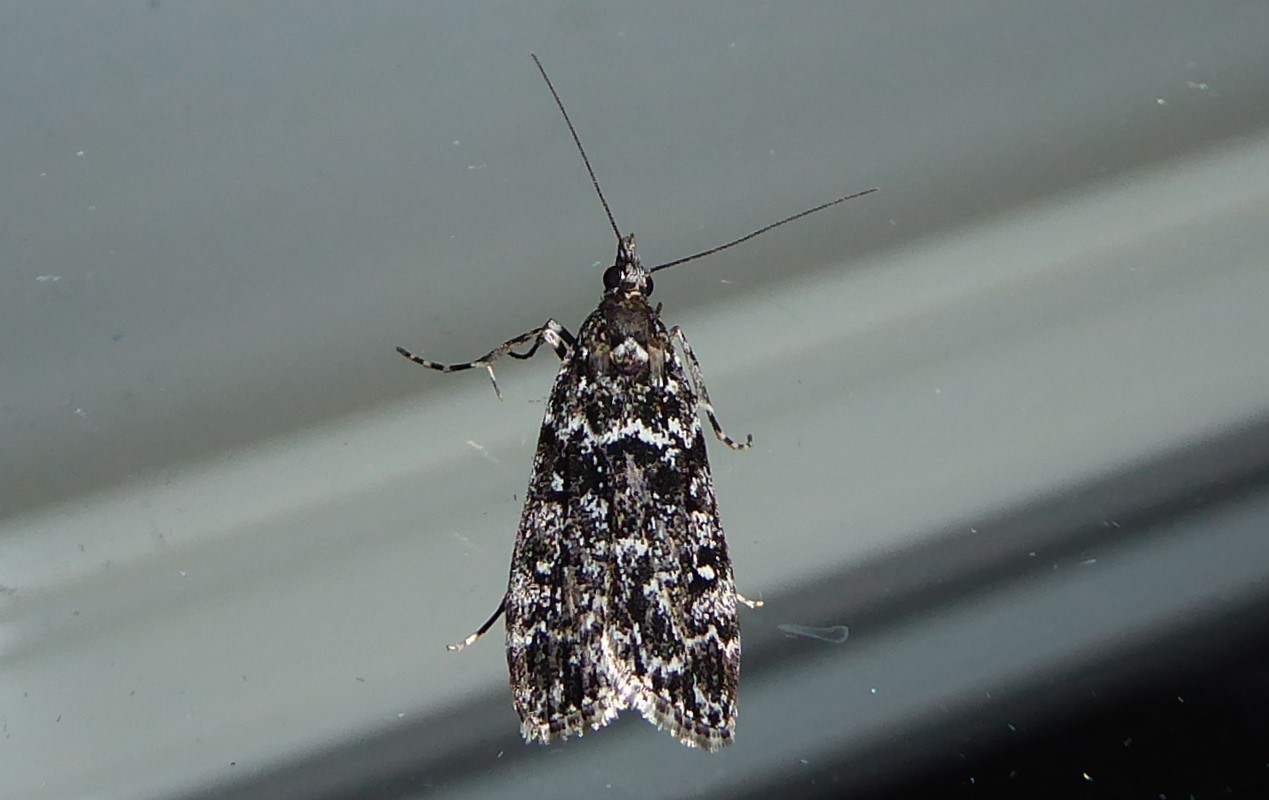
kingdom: Animalia
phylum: Arthropoda
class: Insecta
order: Lepidoptera
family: Crambidae
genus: Eudonia
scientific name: Eudonia philerga
